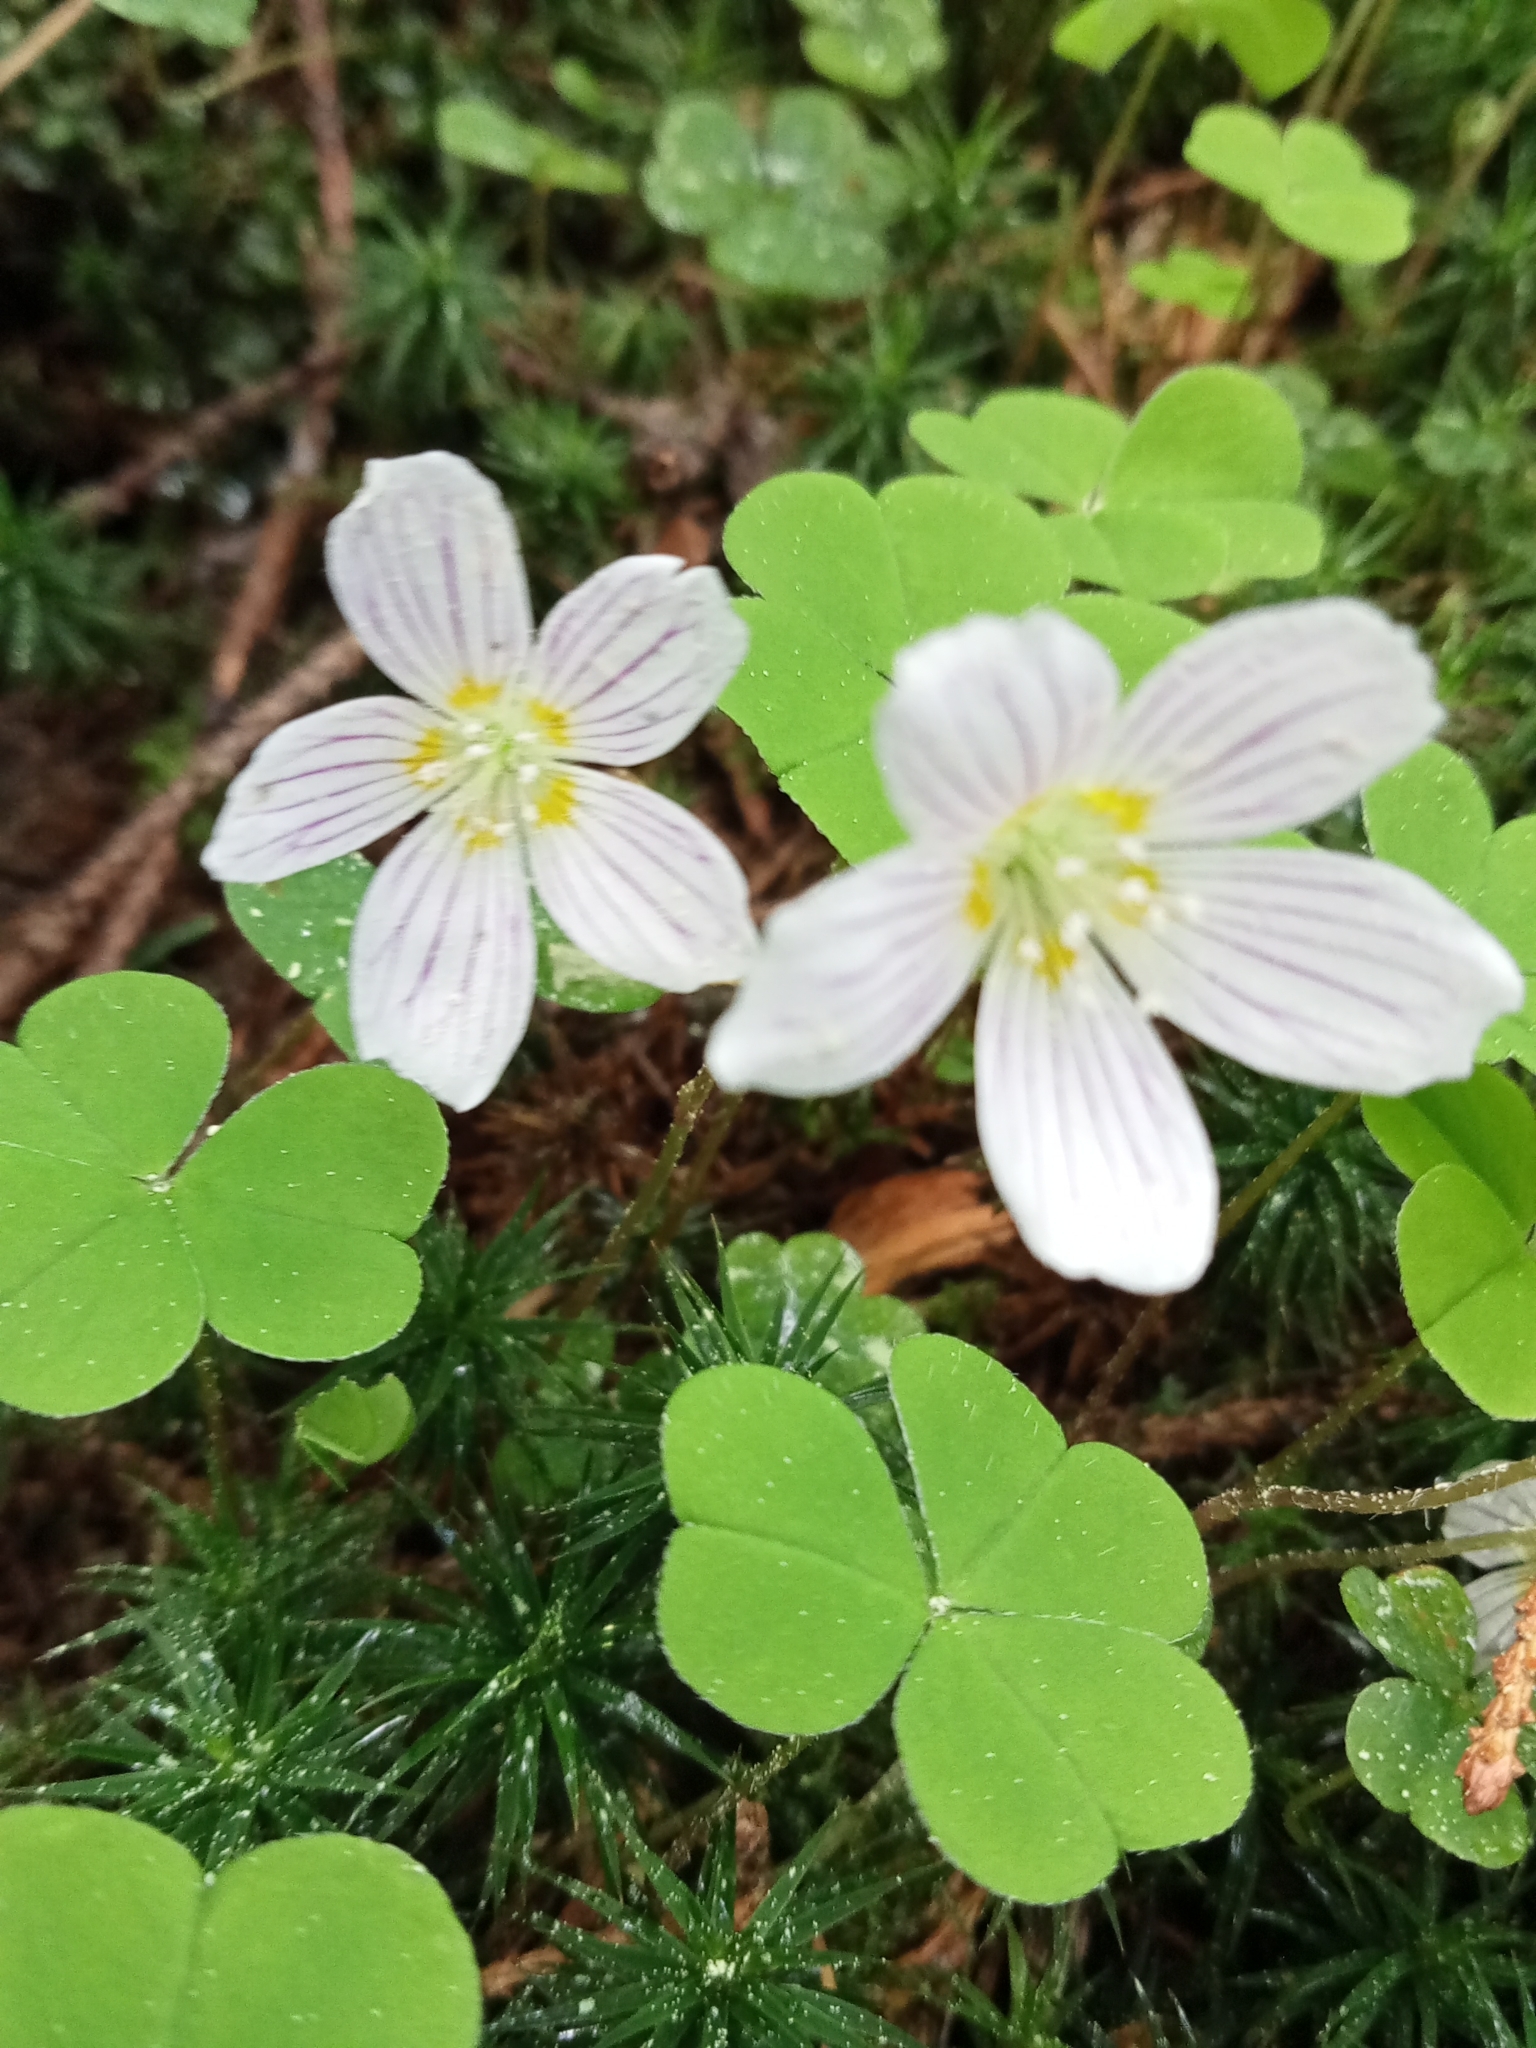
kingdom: Plantae
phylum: Tracheophyta
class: Magnoliopsida
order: Oxalidales
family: Oxalidaceae
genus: Oxalis
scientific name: Oxalis acetosella
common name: Wood-sorrel
